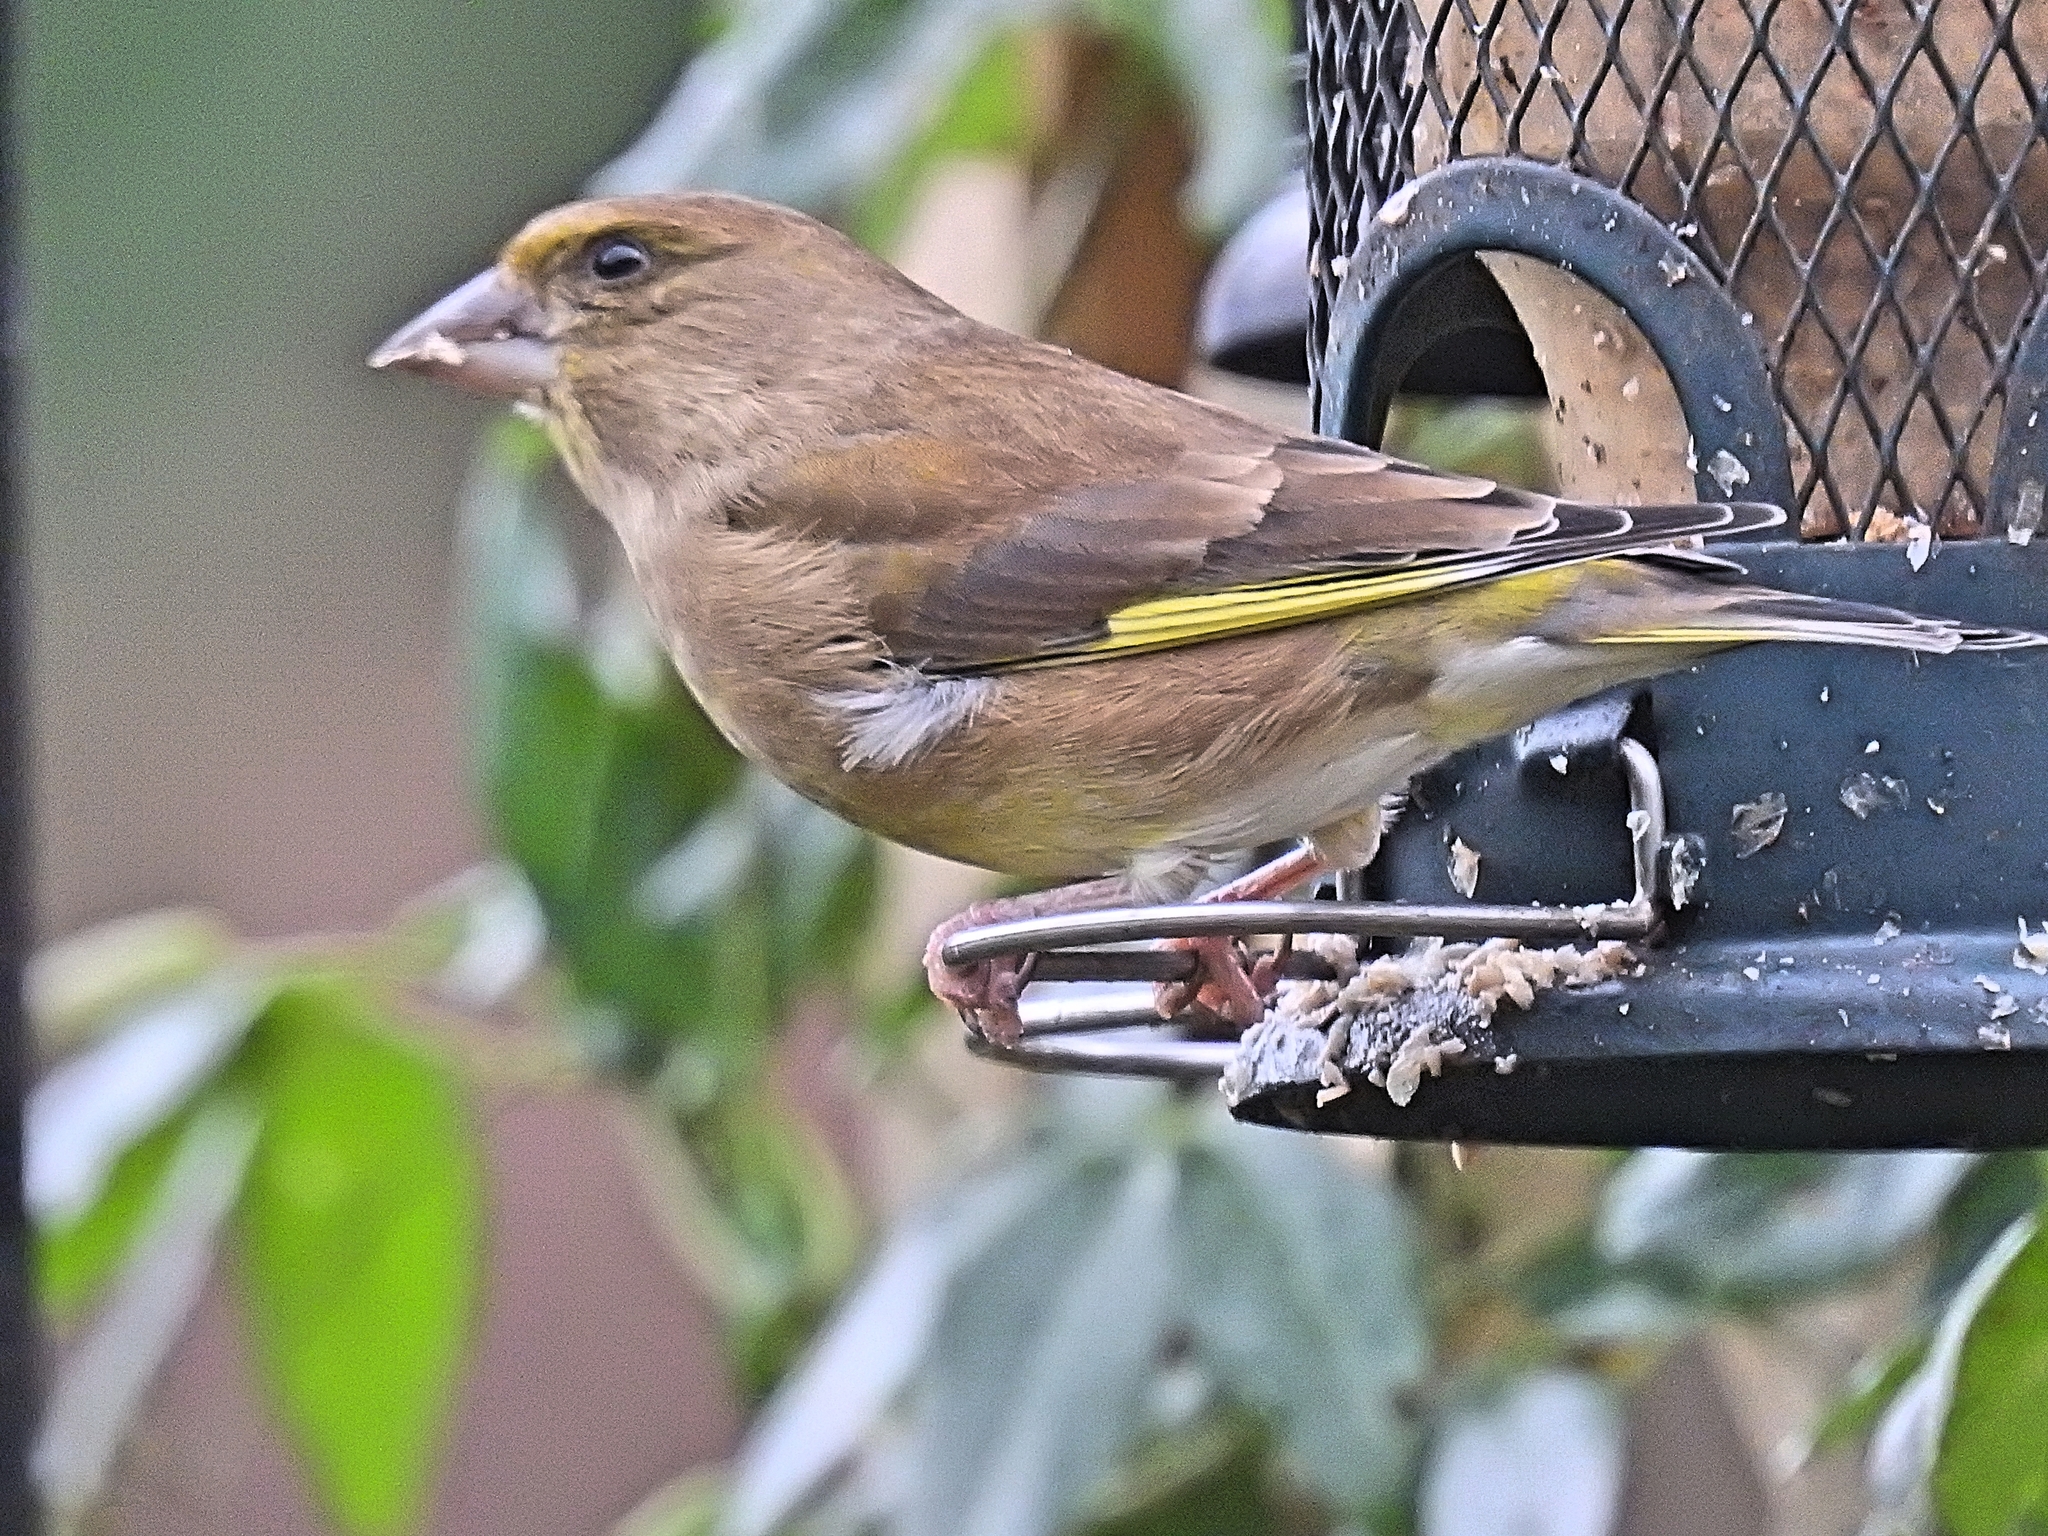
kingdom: Plantae
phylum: Tracheophyta
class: Liliopsida
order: Poales
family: Poaceae
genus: Chloris
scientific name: Chloris chloris
